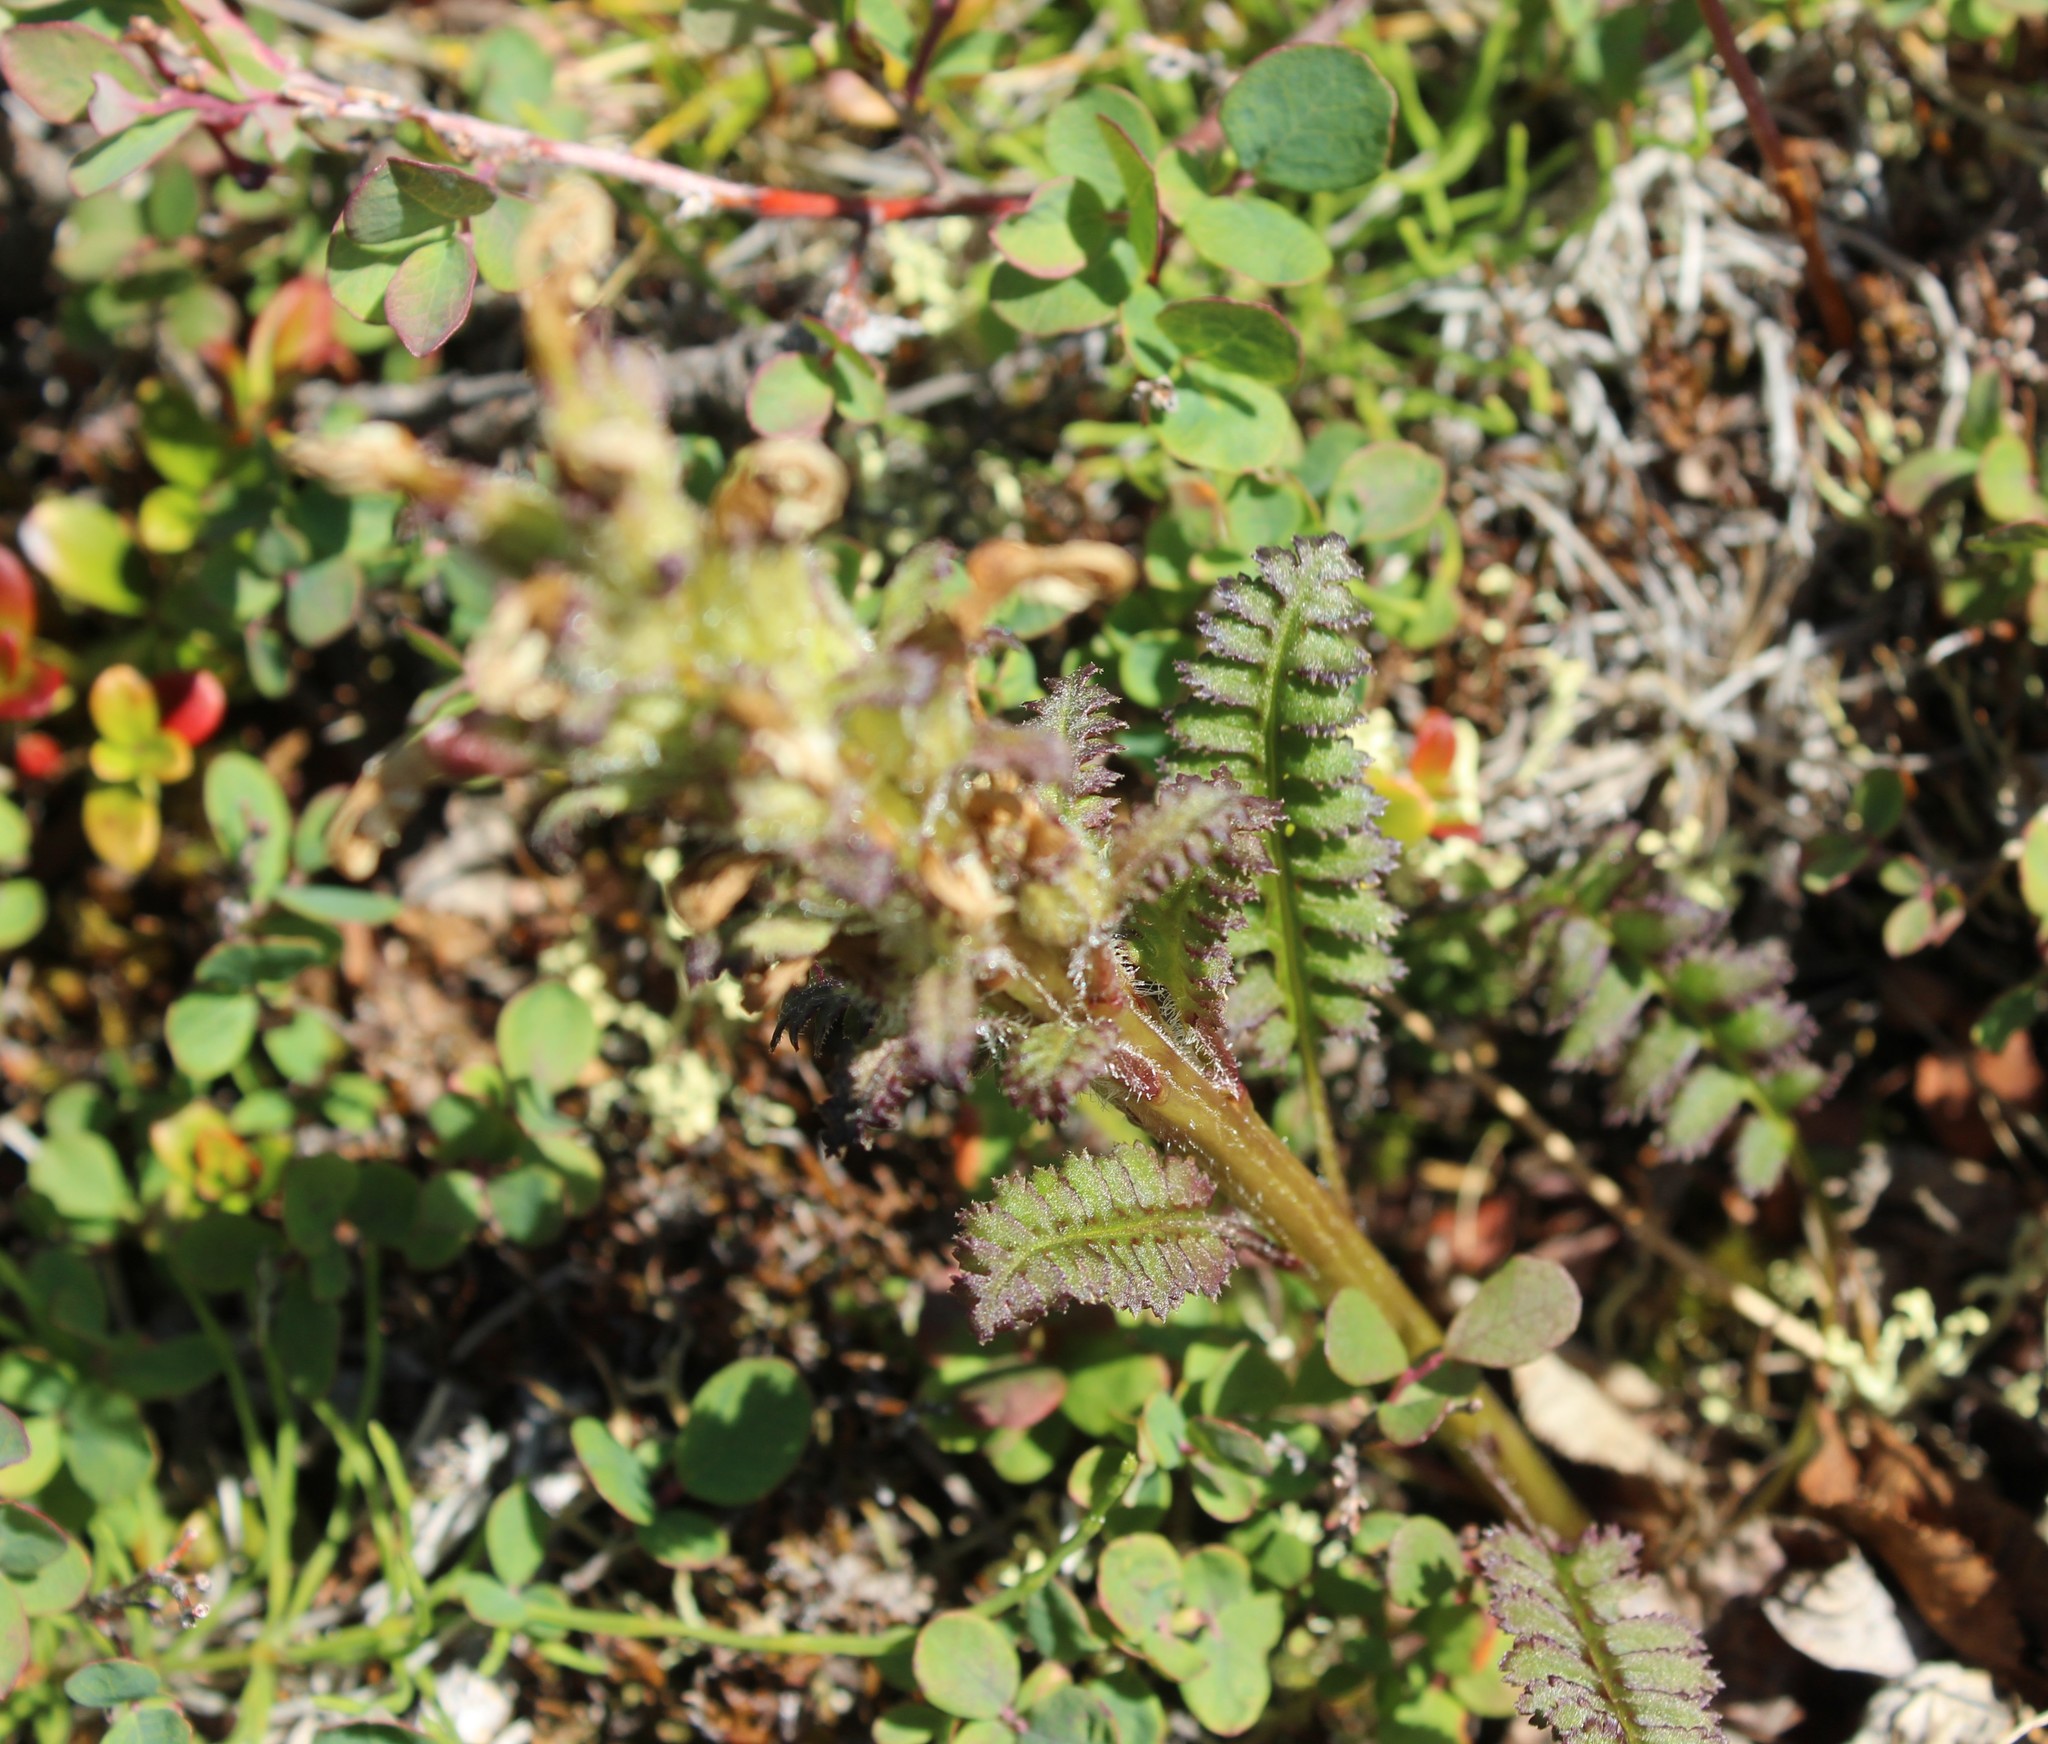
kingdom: Plantae
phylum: Tracheophyta
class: Magnoliopsida
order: Lamiales
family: Orobanchaceae
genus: Pedicularis
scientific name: Pedicularis oederi
